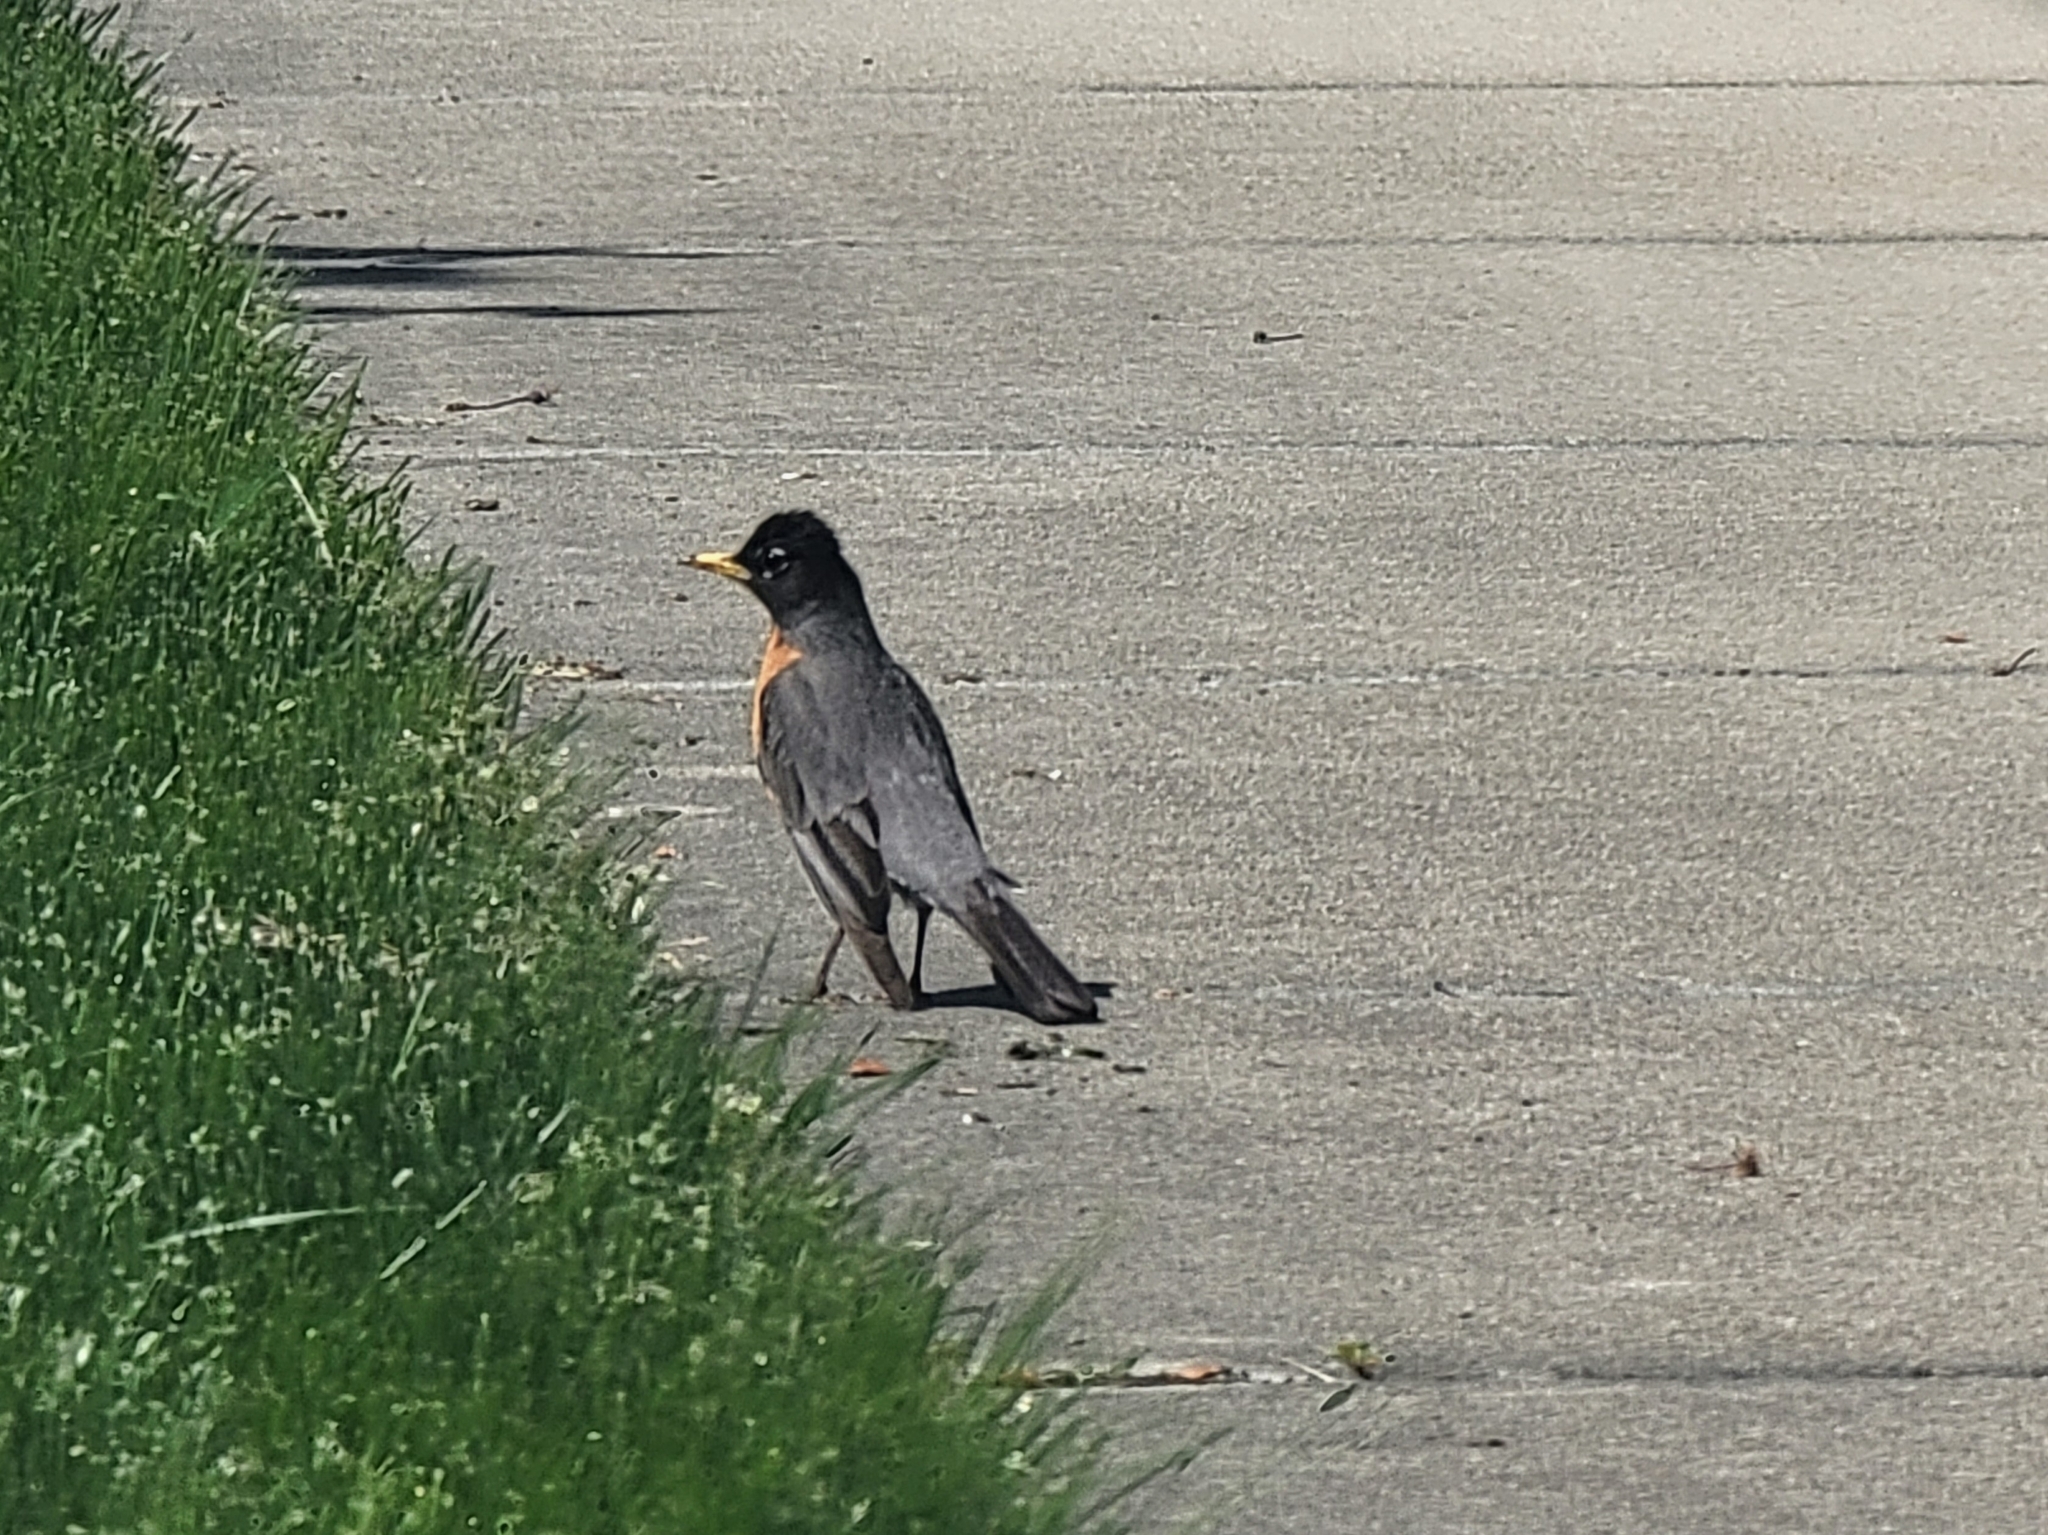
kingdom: Animalia
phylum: Chordata
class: Aves
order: Passeriformes
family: Turdidae
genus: Turdus
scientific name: Turdus migratorius
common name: American robin
